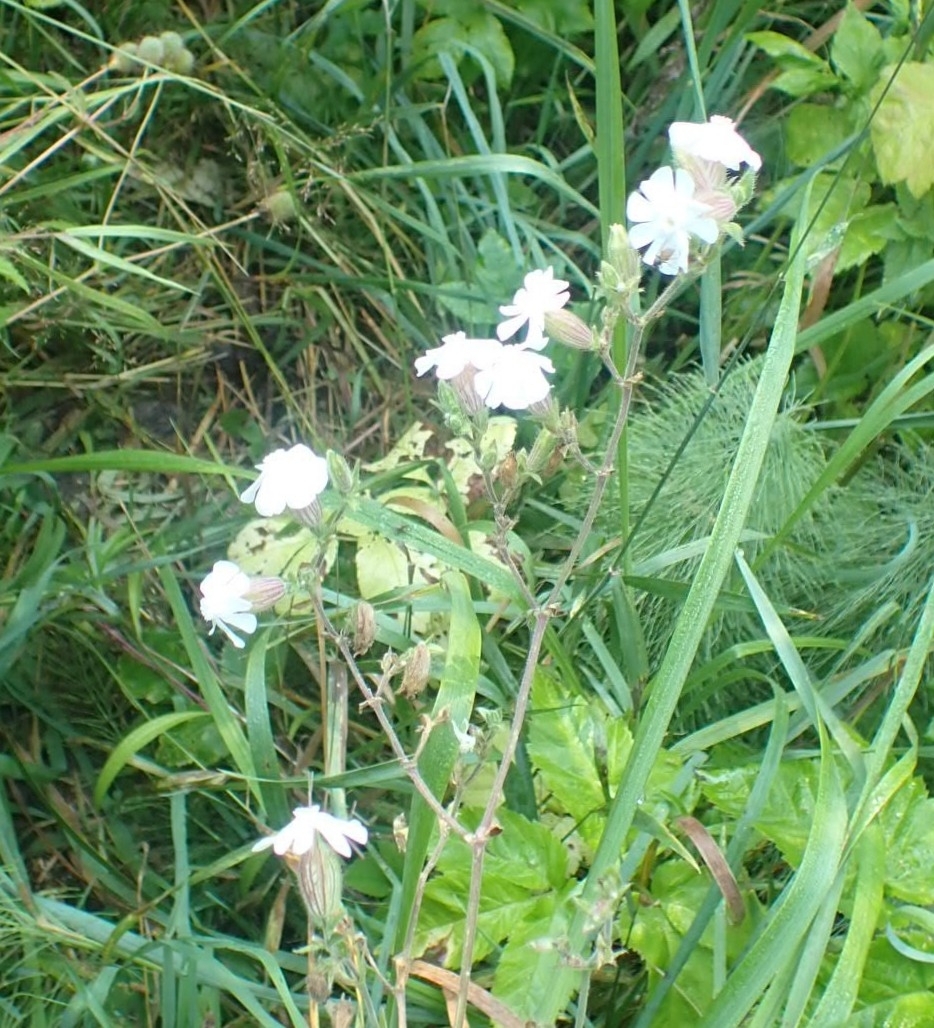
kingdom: Plantae
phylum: Tracheophyta
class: Magnoliopsida
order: Caryophyllales
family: Caryophyllaceae
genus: Silene
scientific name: Silene latifolia
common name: White campion
